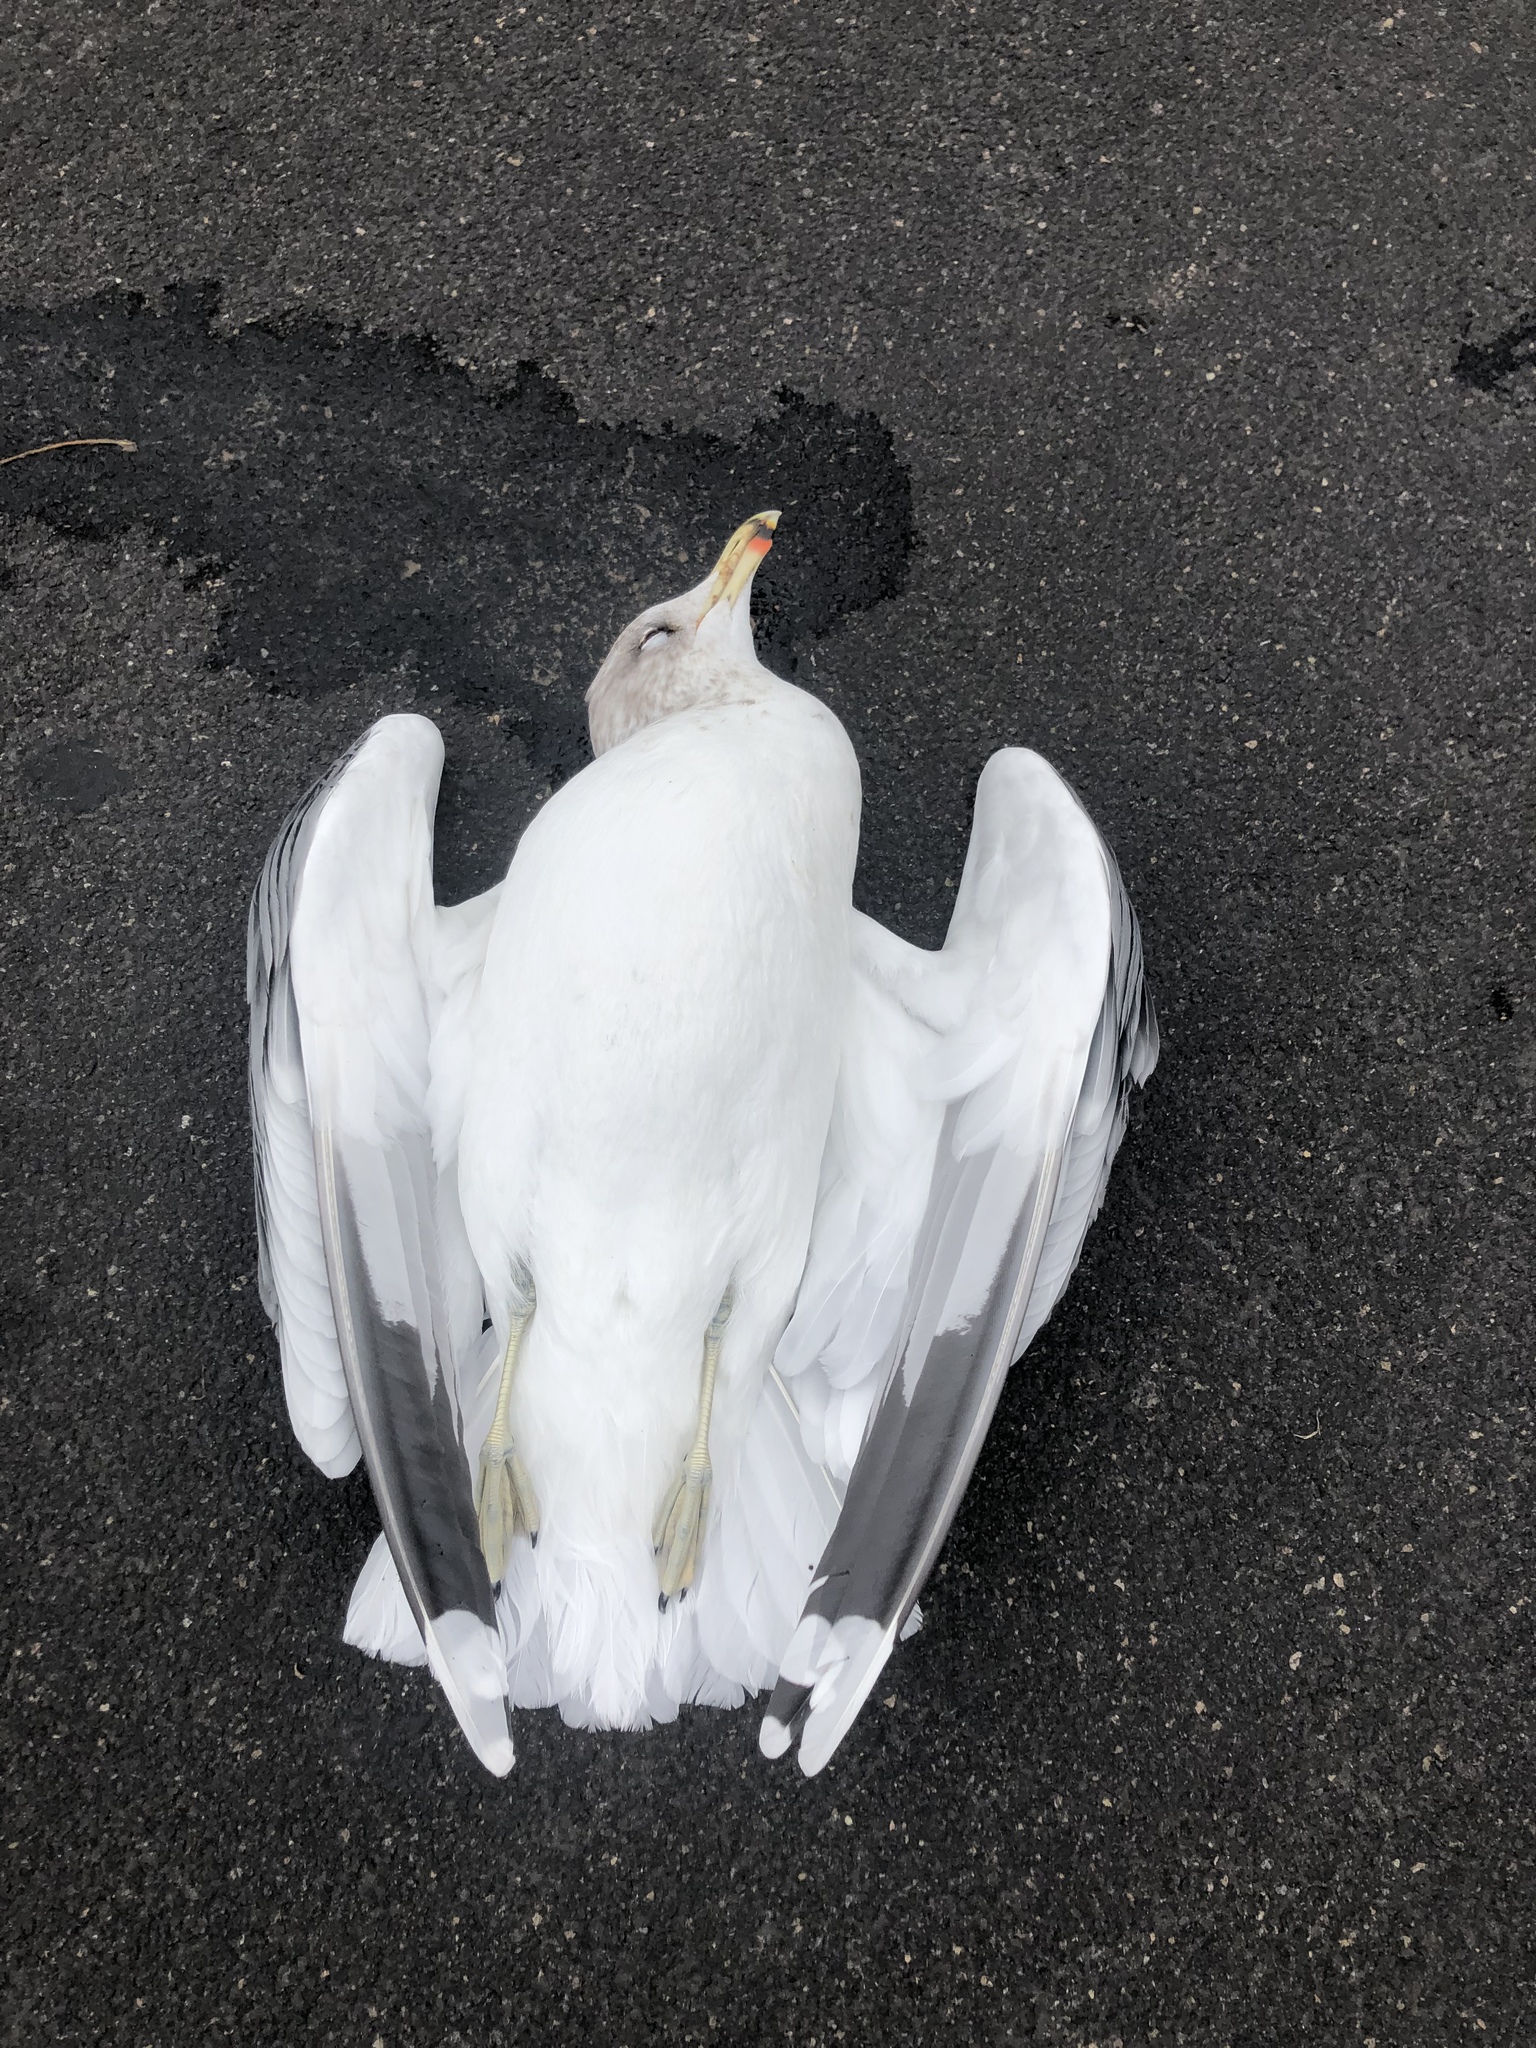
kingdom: Animalia
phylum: Chordata
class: Aves
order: Charadriiformes
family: Laridae
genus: Larus
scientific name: Larus californicus
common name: California gull
